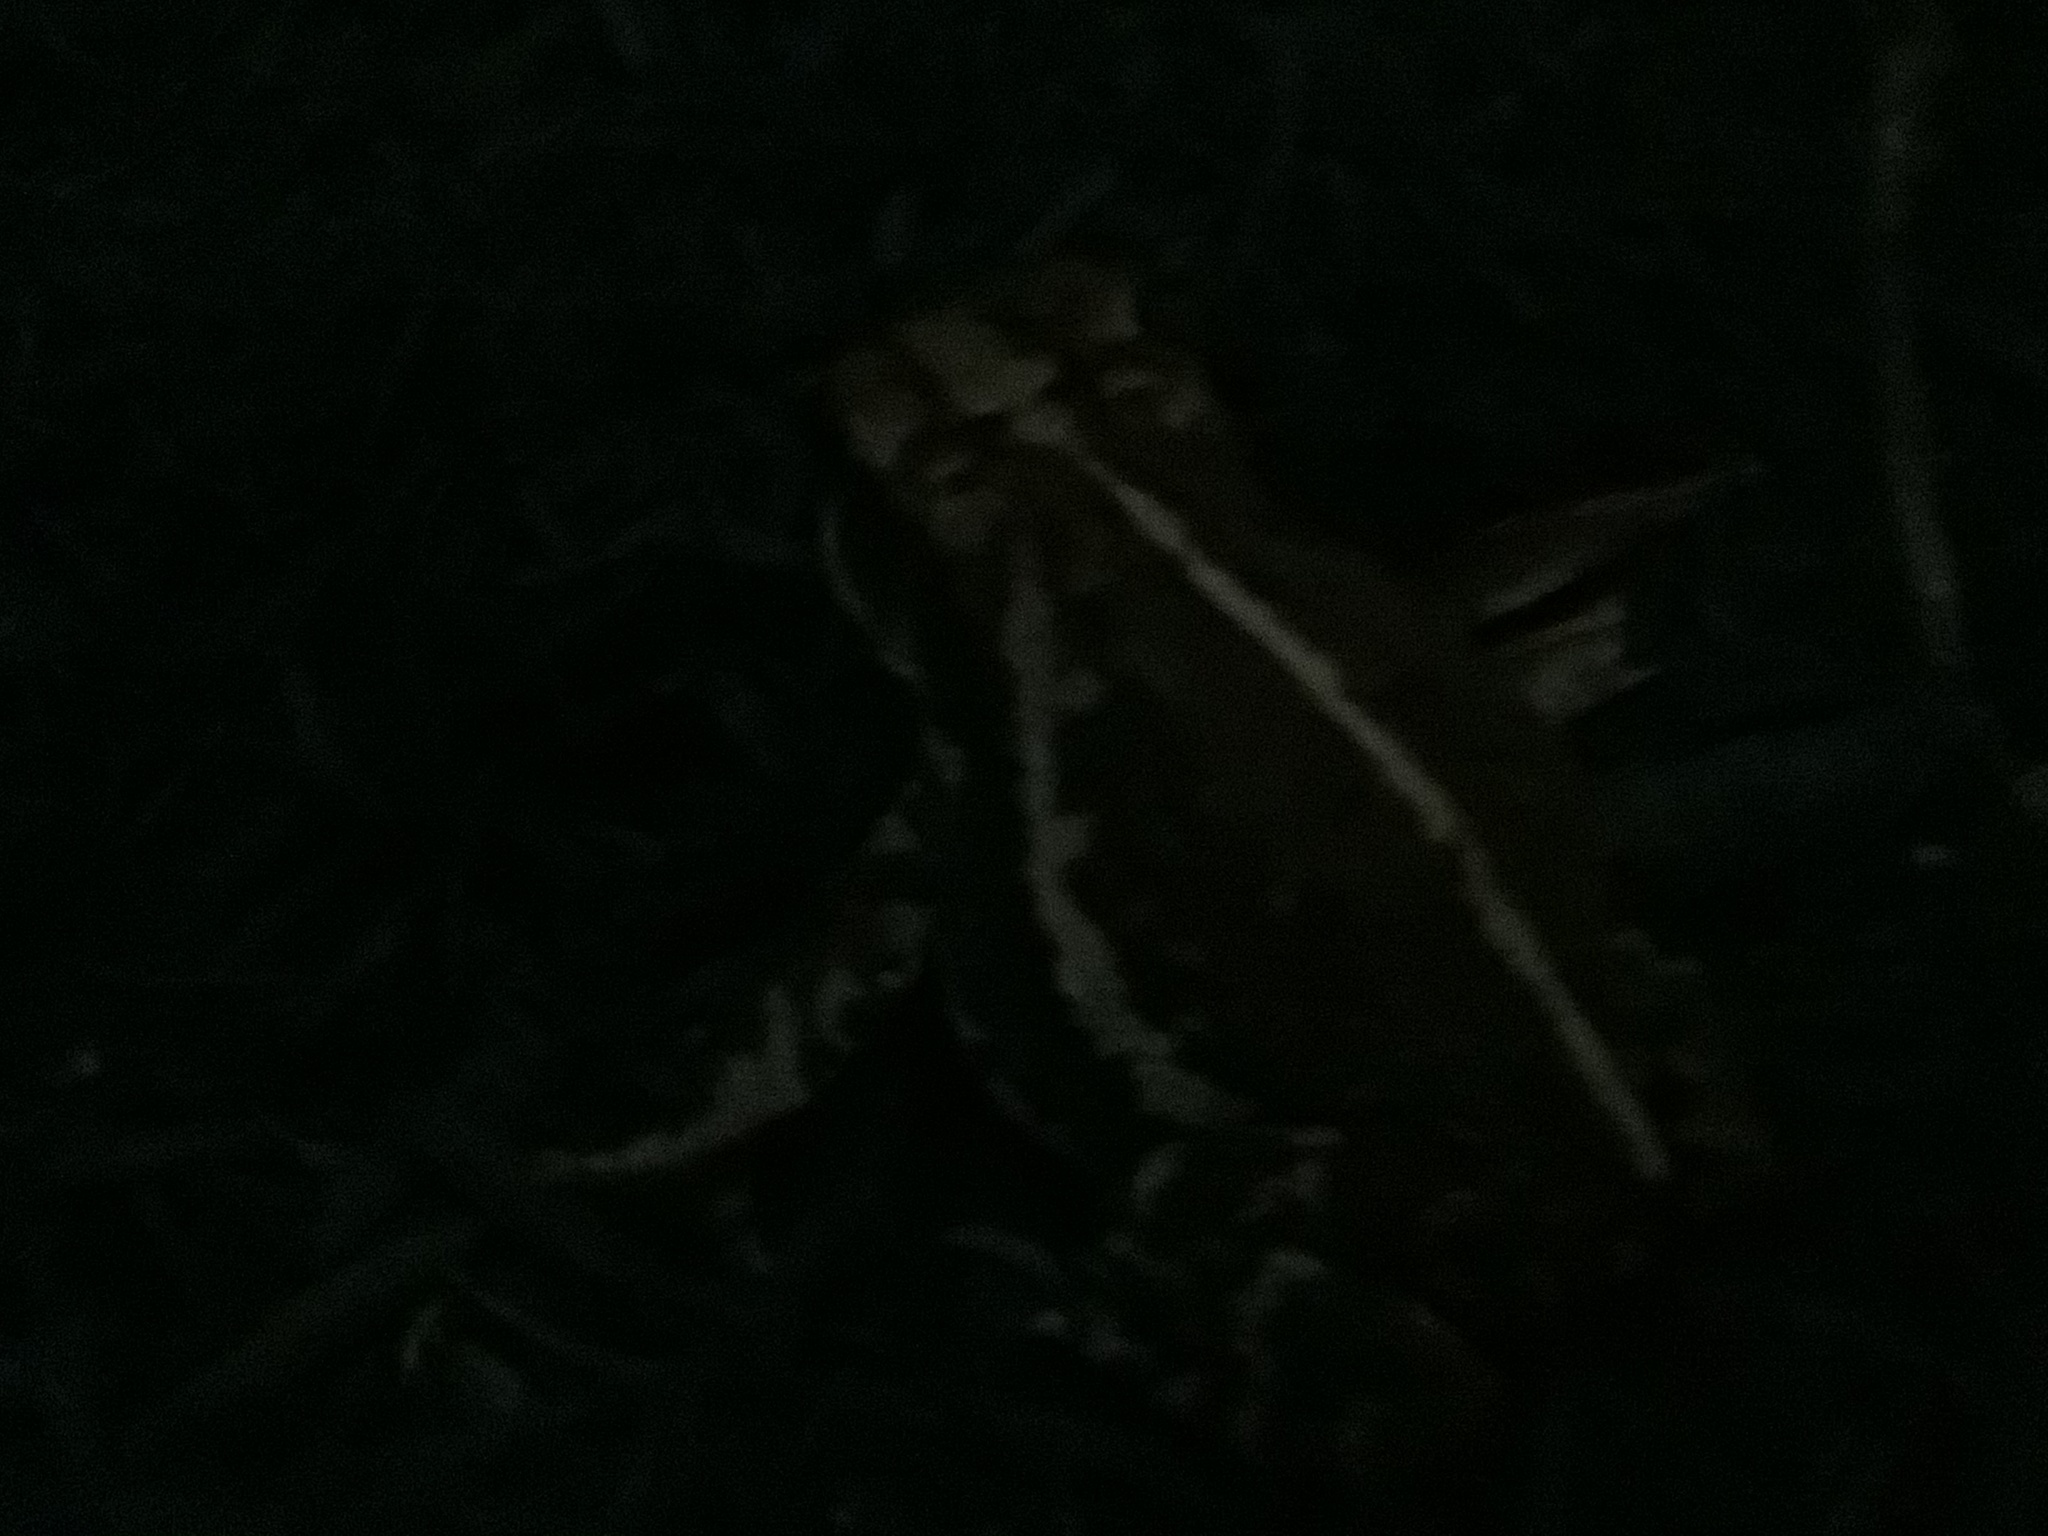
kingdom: Animalia
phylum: Chordata
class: Amphibia
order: Anura
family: Bufonidae
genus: Incilius
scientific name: Incilius nebulifer
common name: Gulf coast toad
